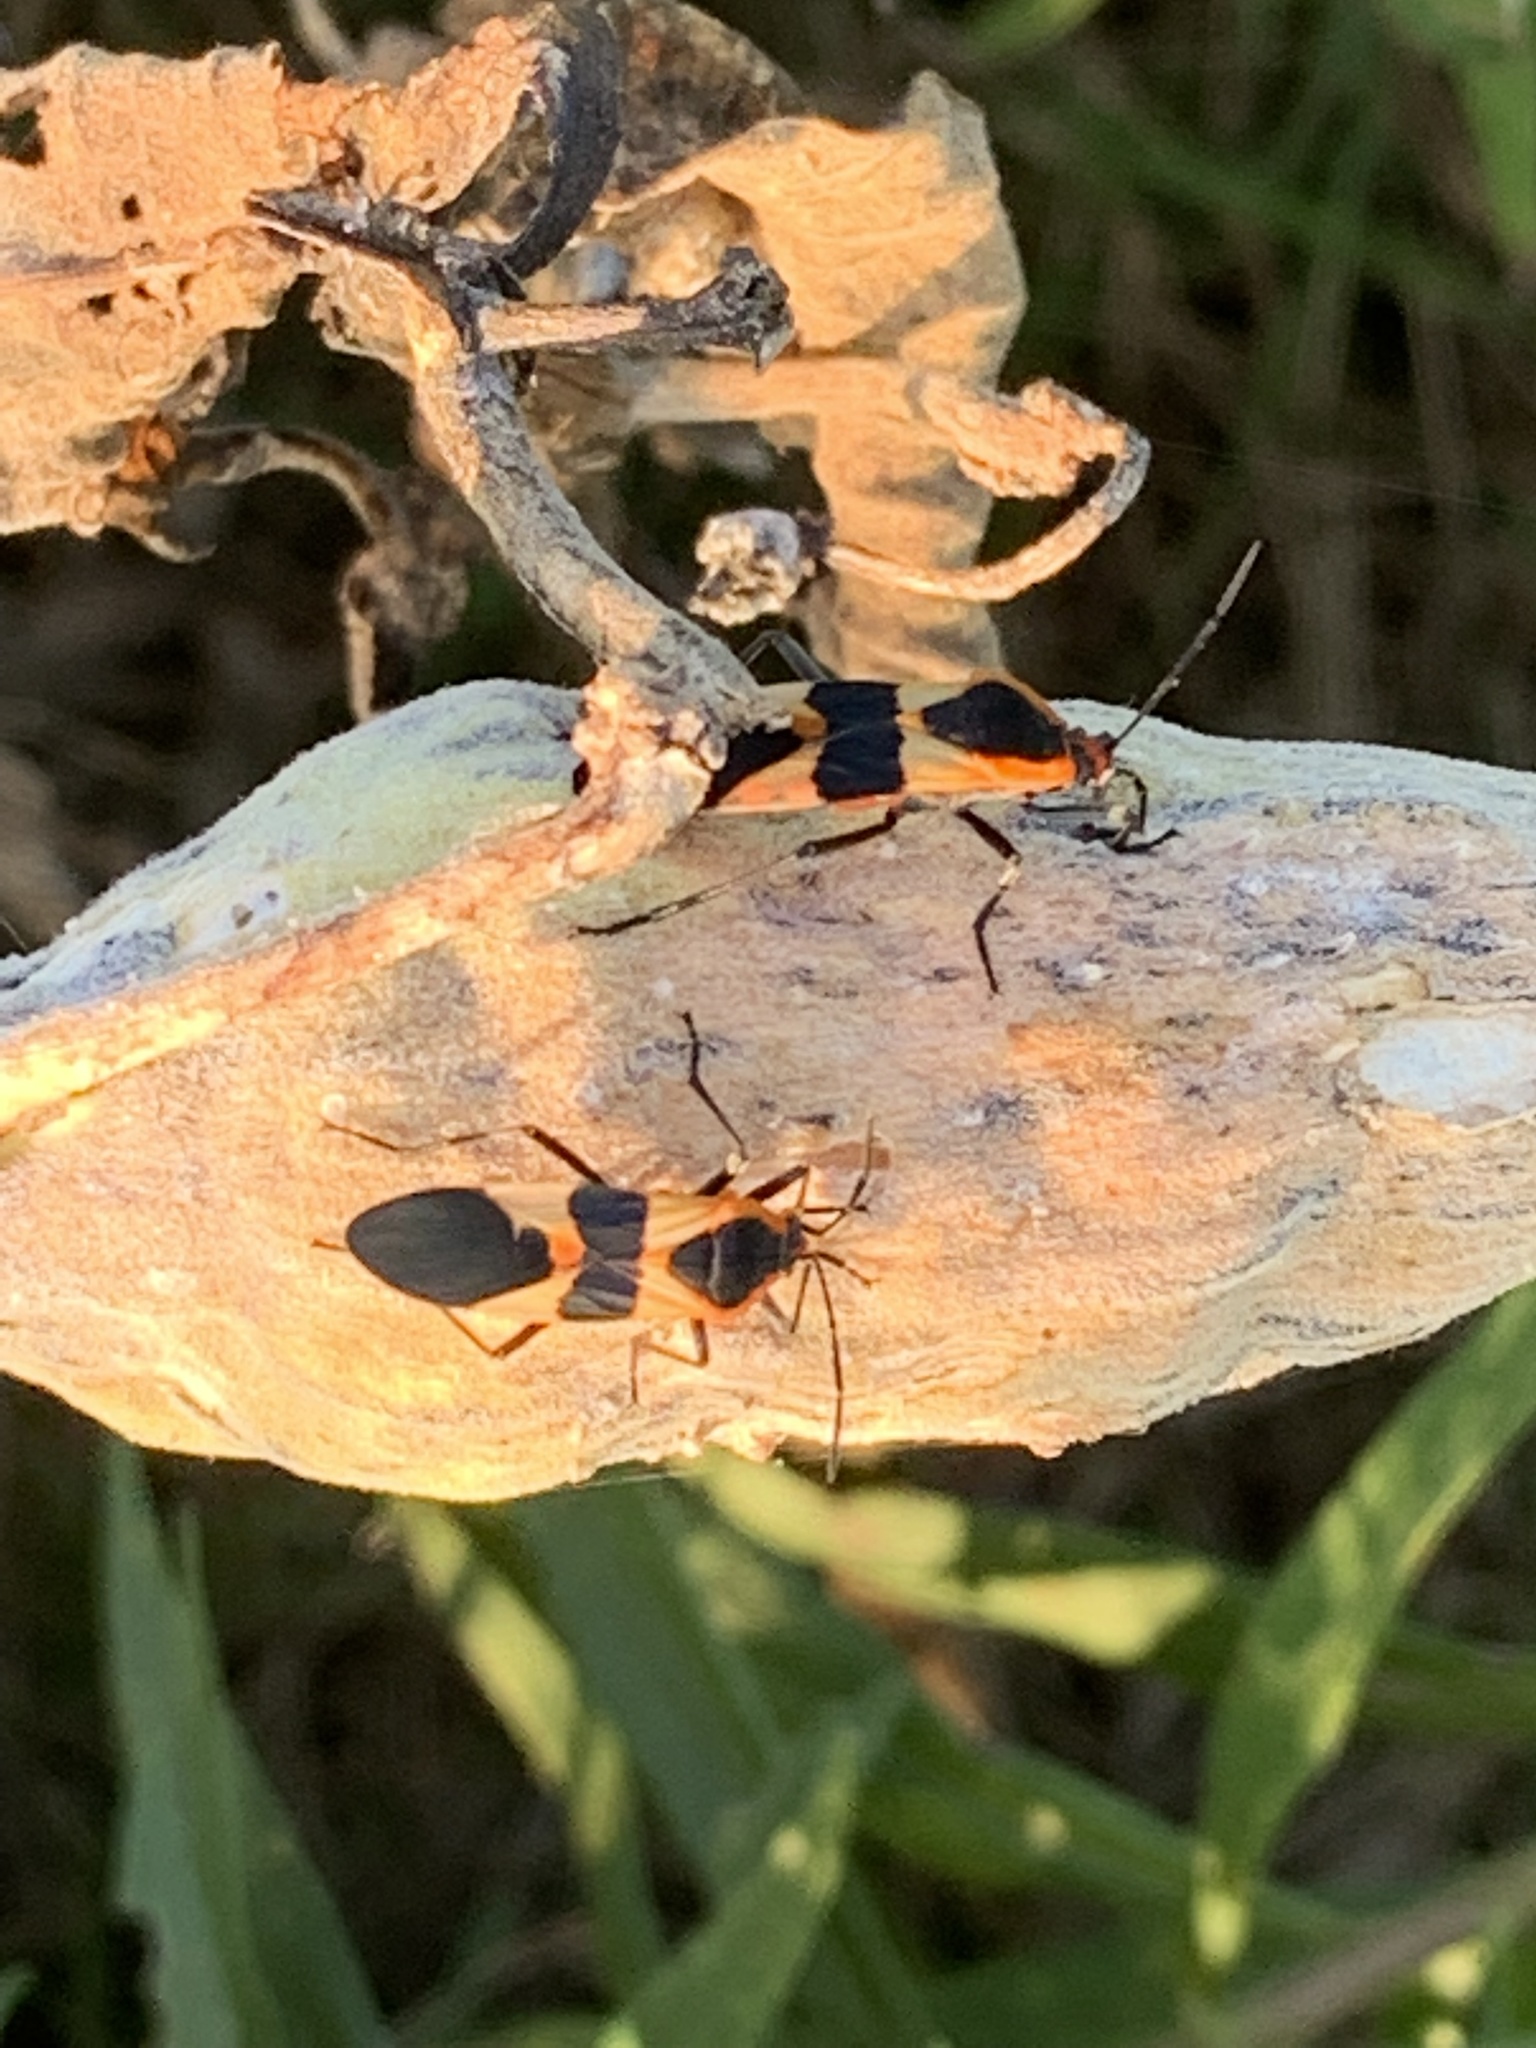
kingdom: Animalia
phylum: Arthropoda
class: Insecta
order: Hemiptera
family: Lygaeidae
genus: Oncopeltus
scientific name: Oncopeltus fasciatus
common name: Large milkweed bug
